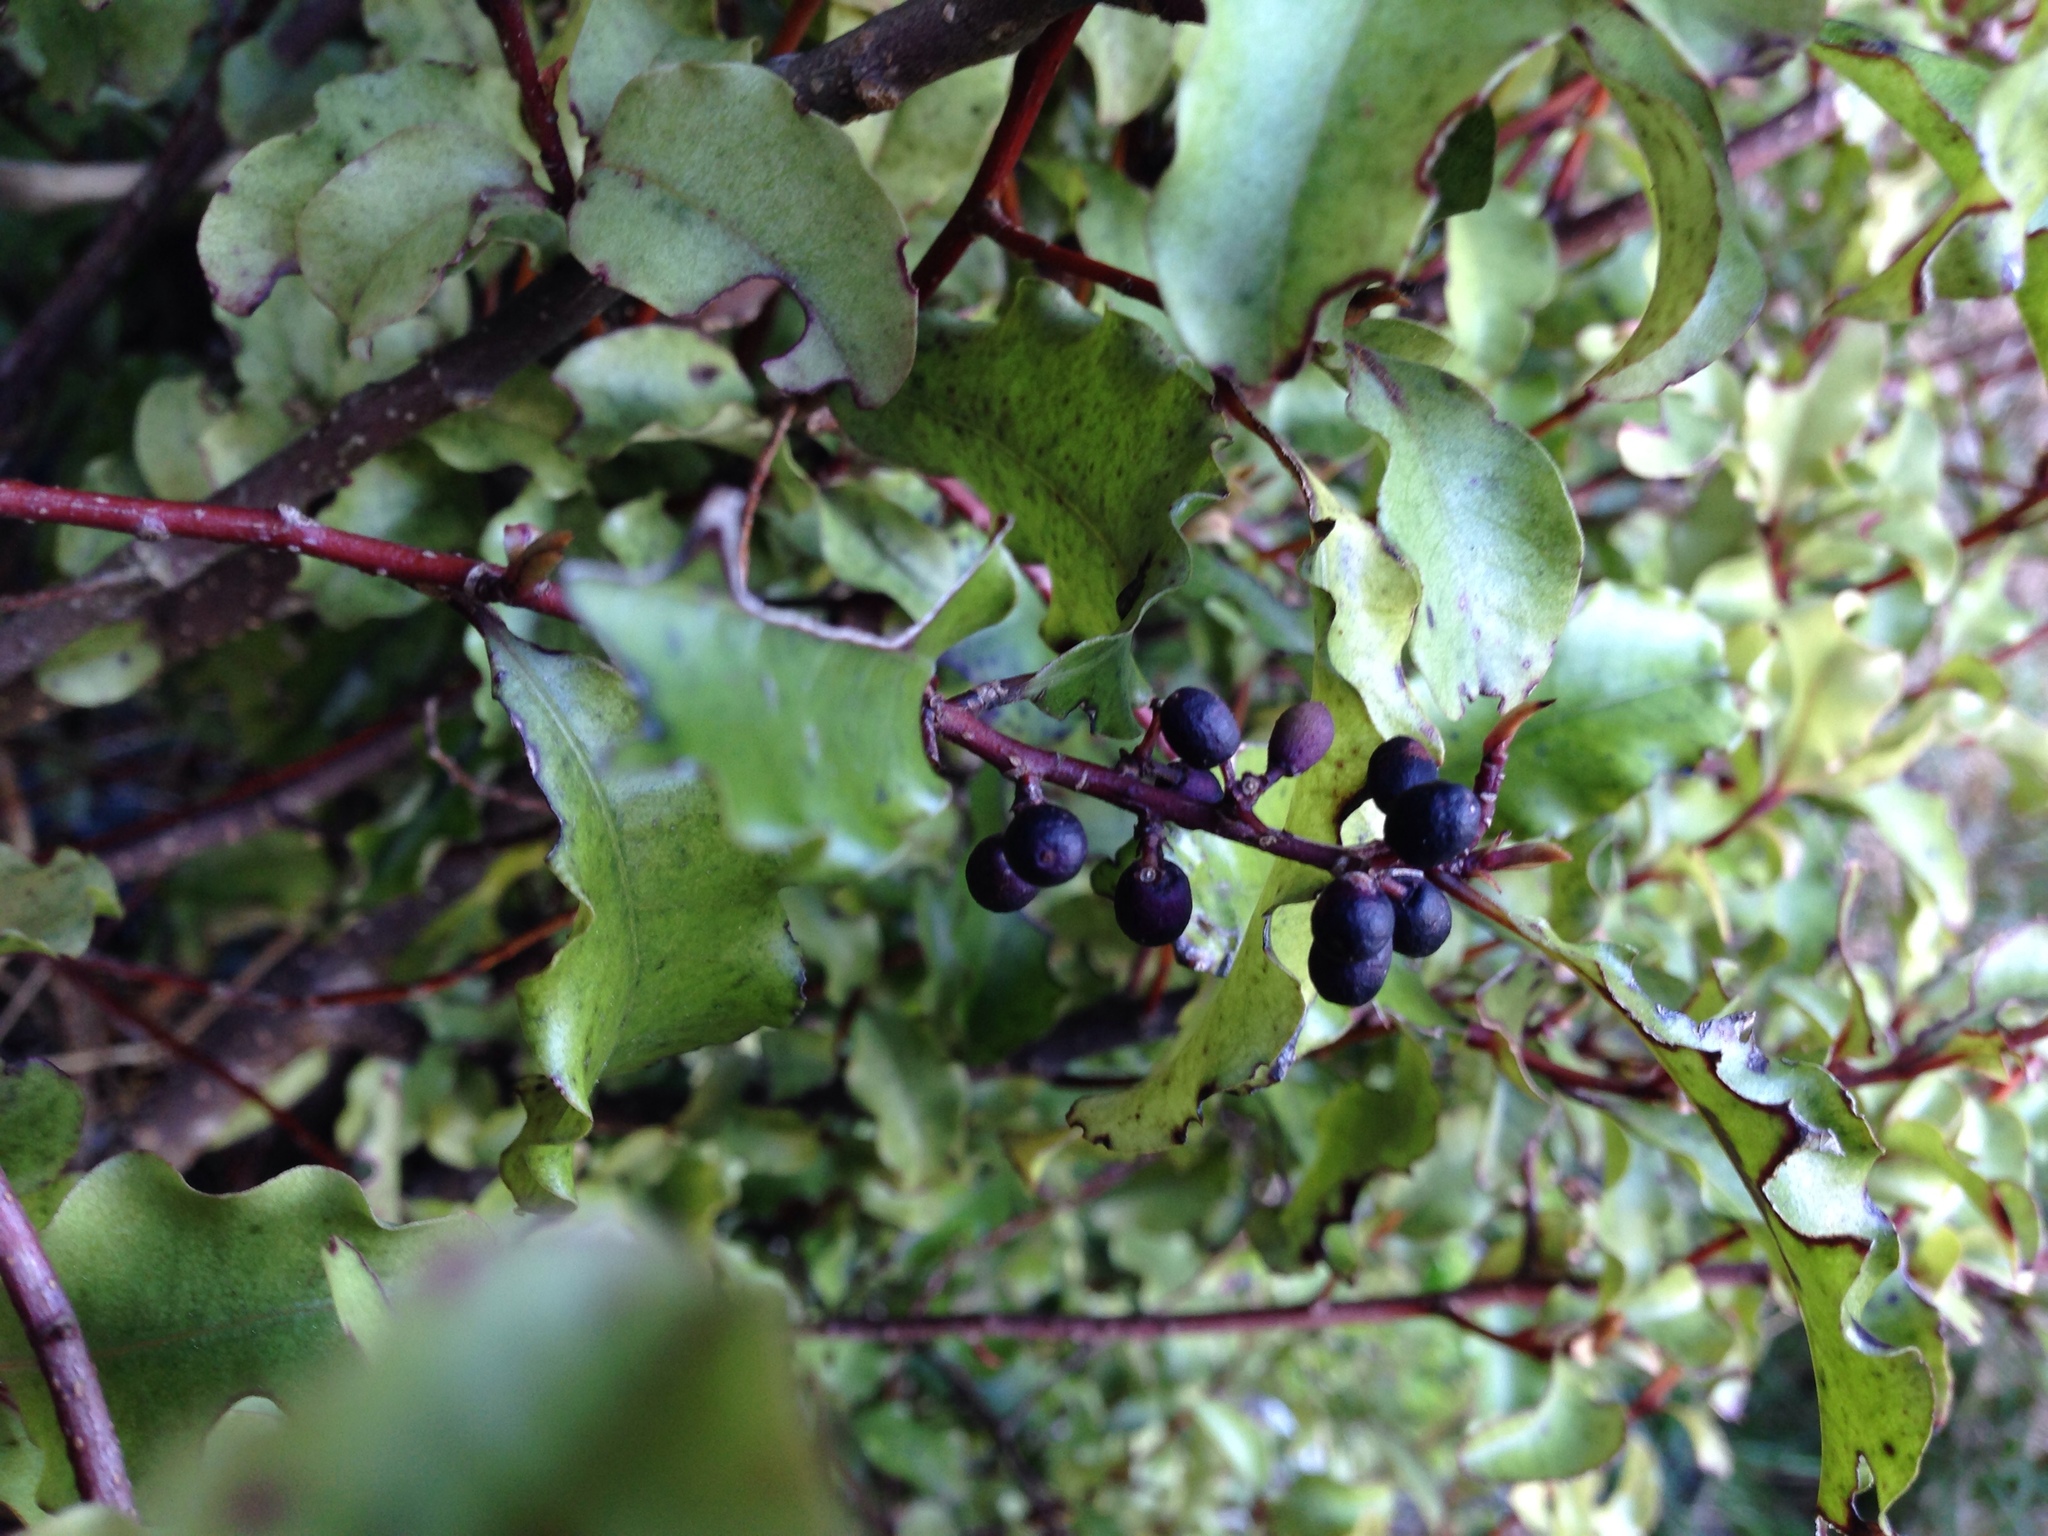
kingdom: Plantae
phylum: Tracheophyta
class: Magnoliopsida
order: Ericales
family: Primulaceae
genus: Myrsine
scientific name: Myrsine australis
